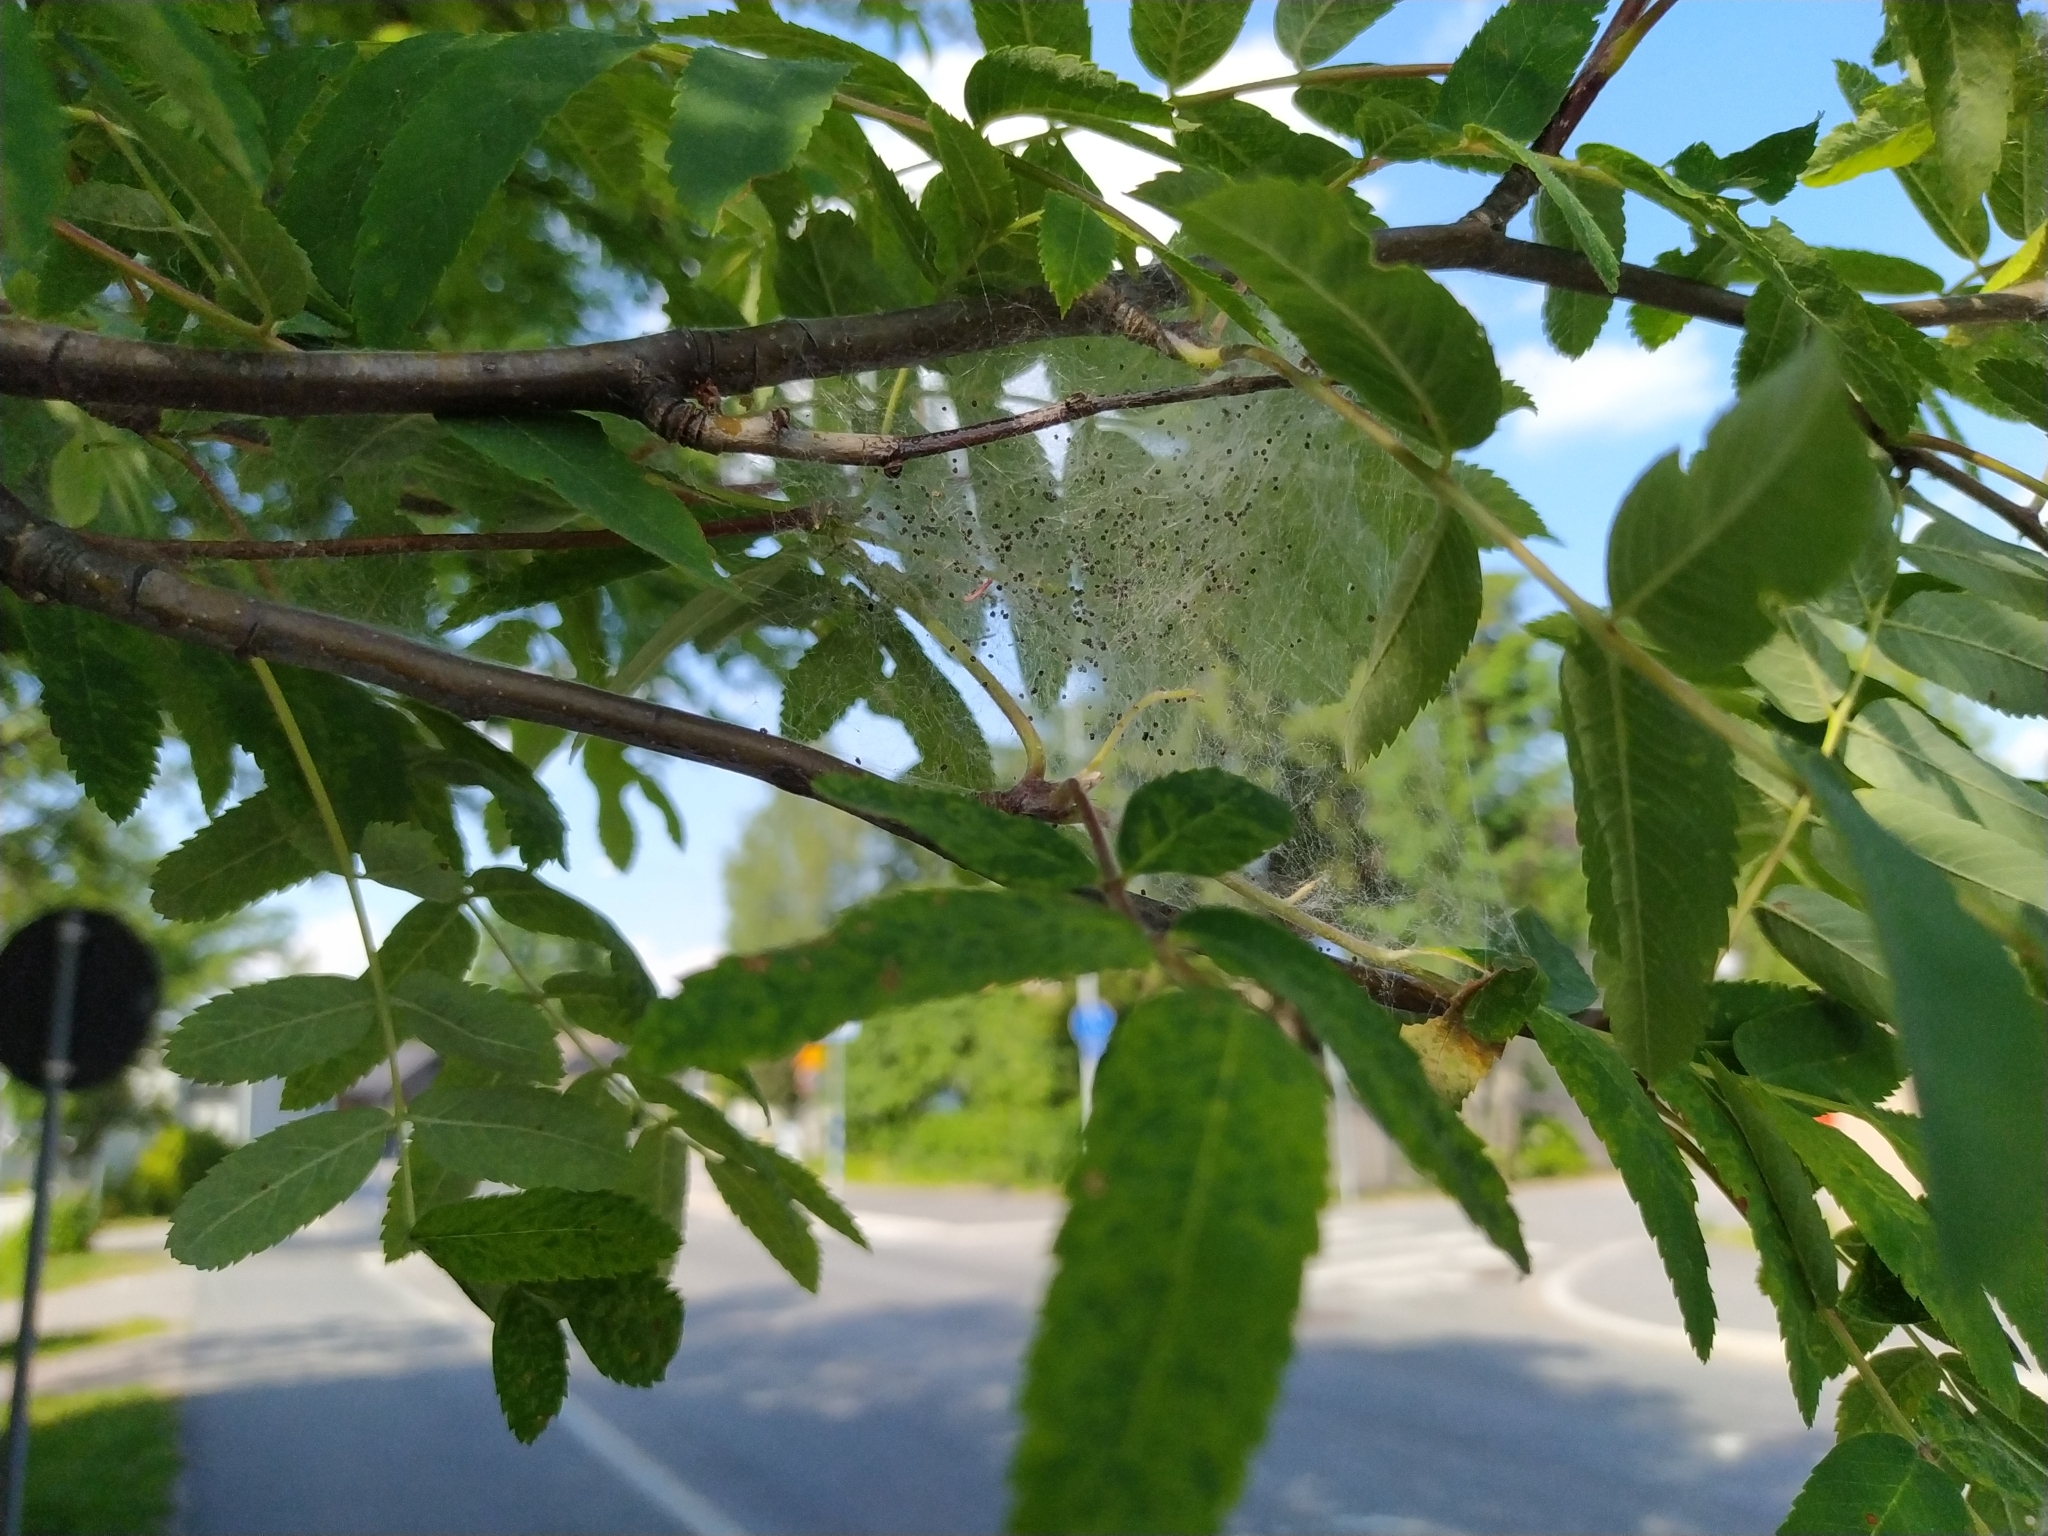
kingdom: Animalia
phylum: Arthropoda
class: Insecta
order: Lepidoptera
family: Yponomeutidae
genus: Yponomeuta
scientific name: Yponomeuta padella
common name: Orchard ermine
